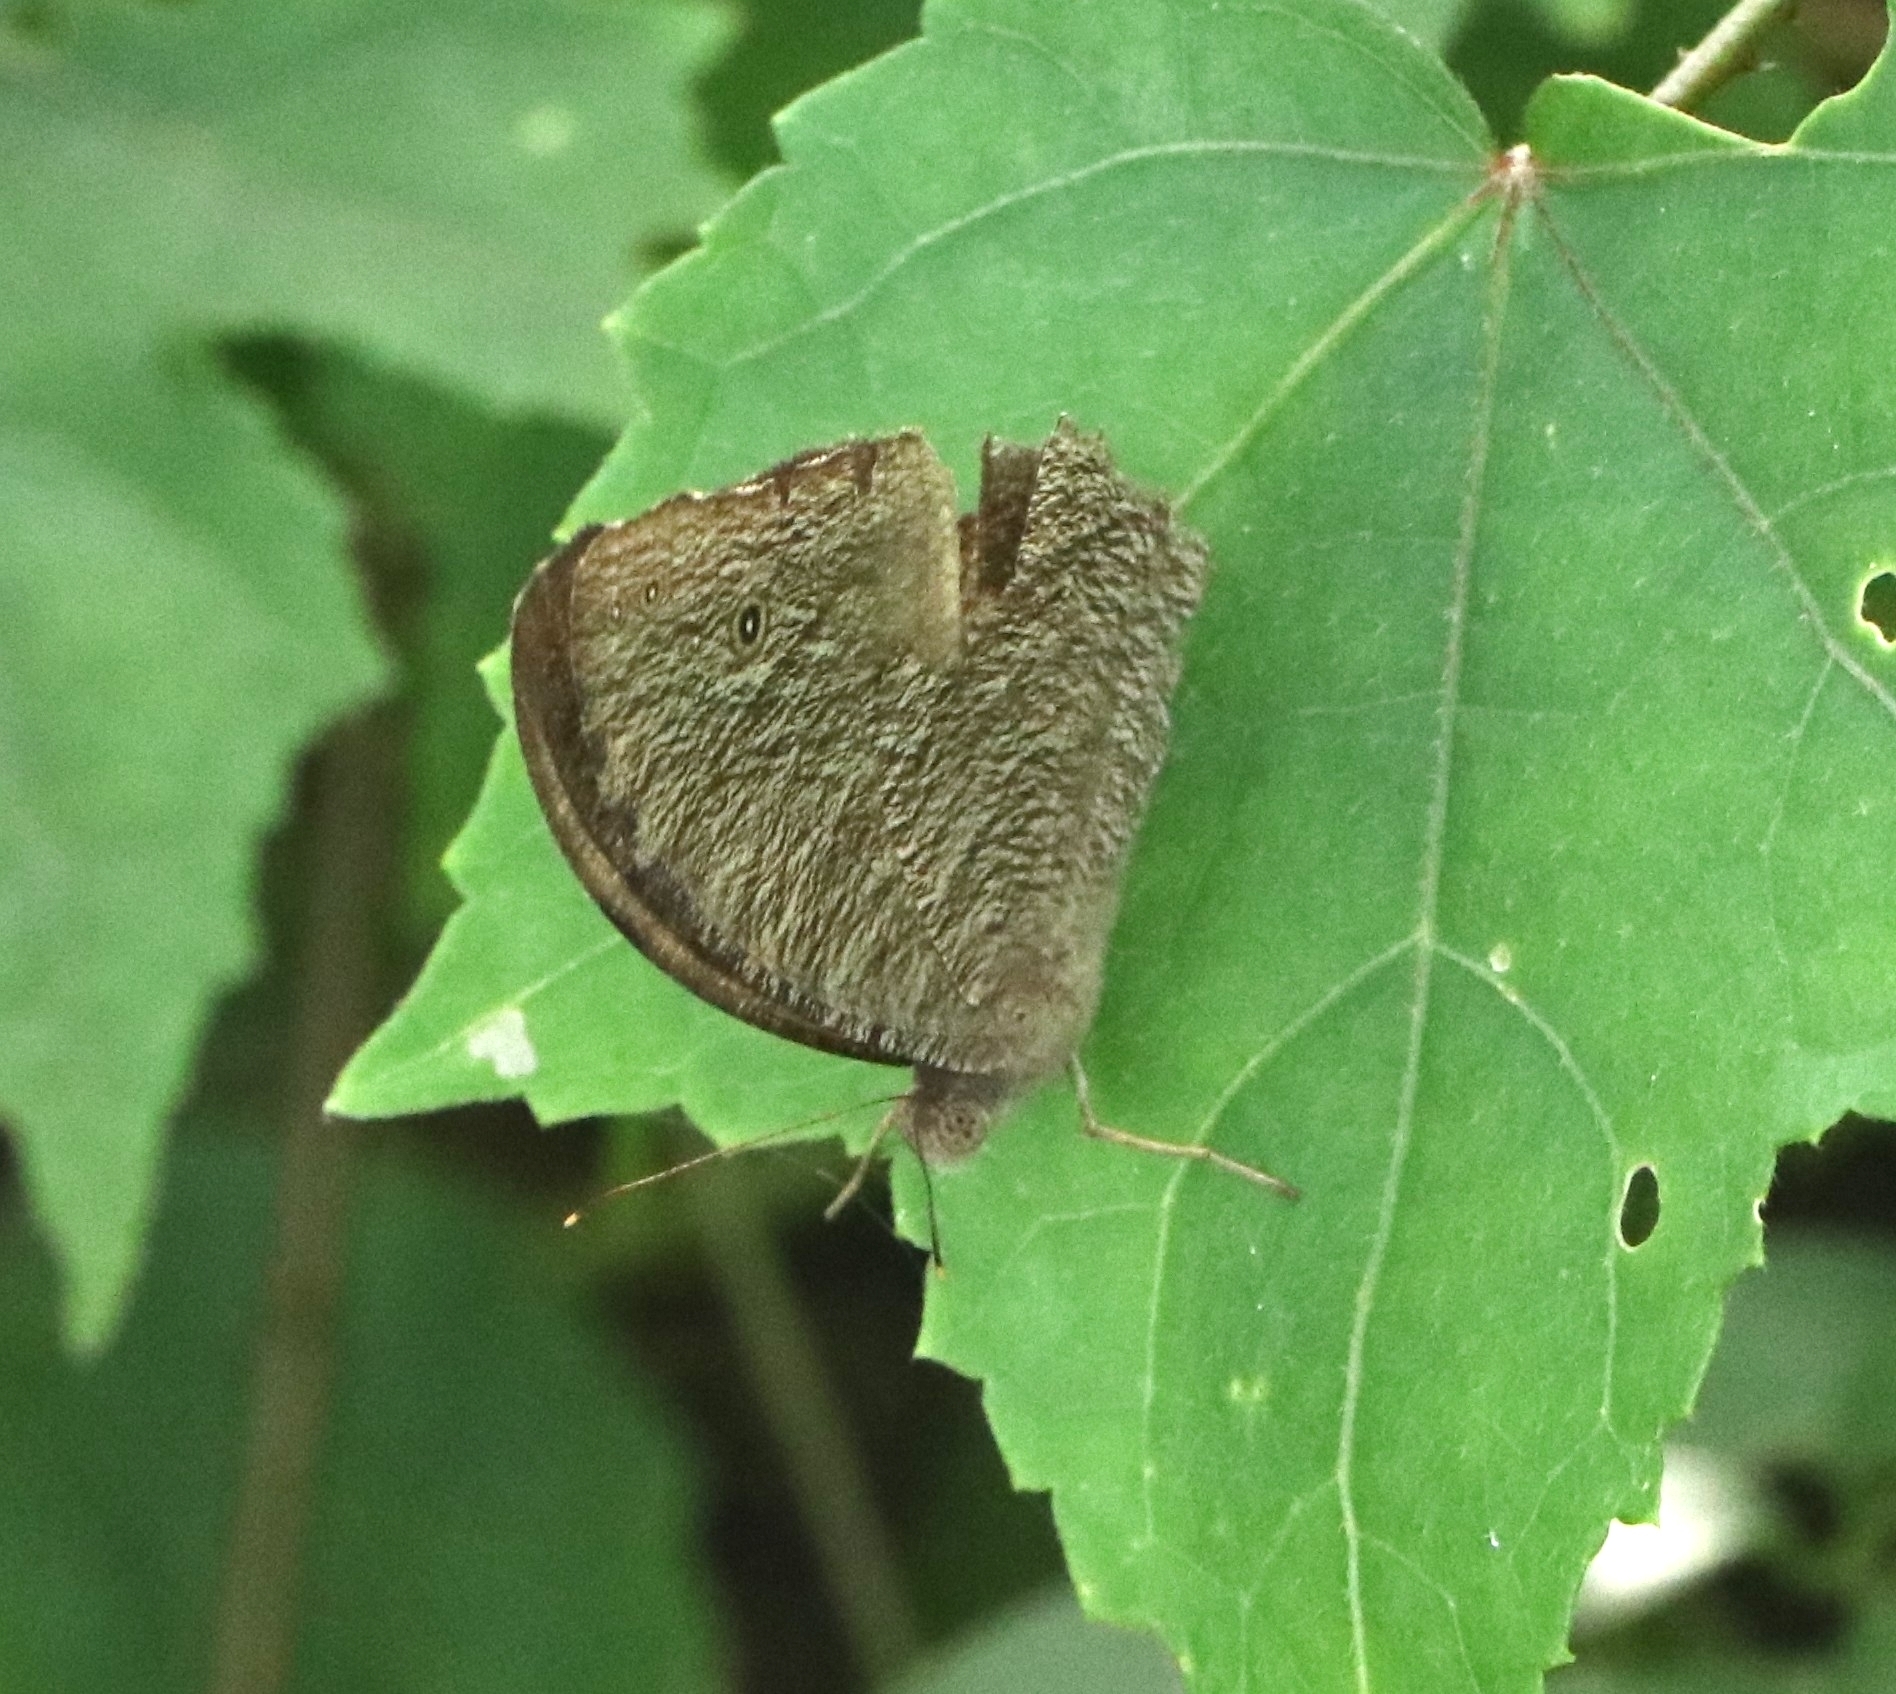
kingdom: Animalia
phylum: Arthropoda
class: Insecta
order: Lepidoptera
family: Nymphalidae
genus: Melanitis
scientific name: Melanitis leda
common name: Twilight brown
